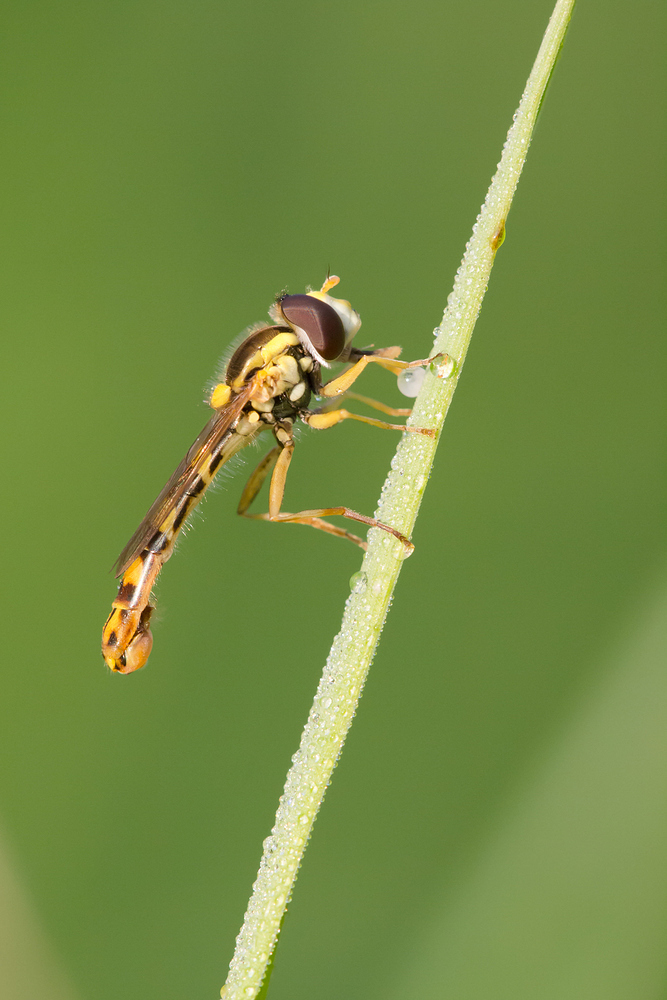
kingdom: Animalia
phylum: Arthropoda
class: Insecta
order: Diptera
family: Syrphidae
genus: Sphaerophoria
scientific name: Sphaerophoria scripta
